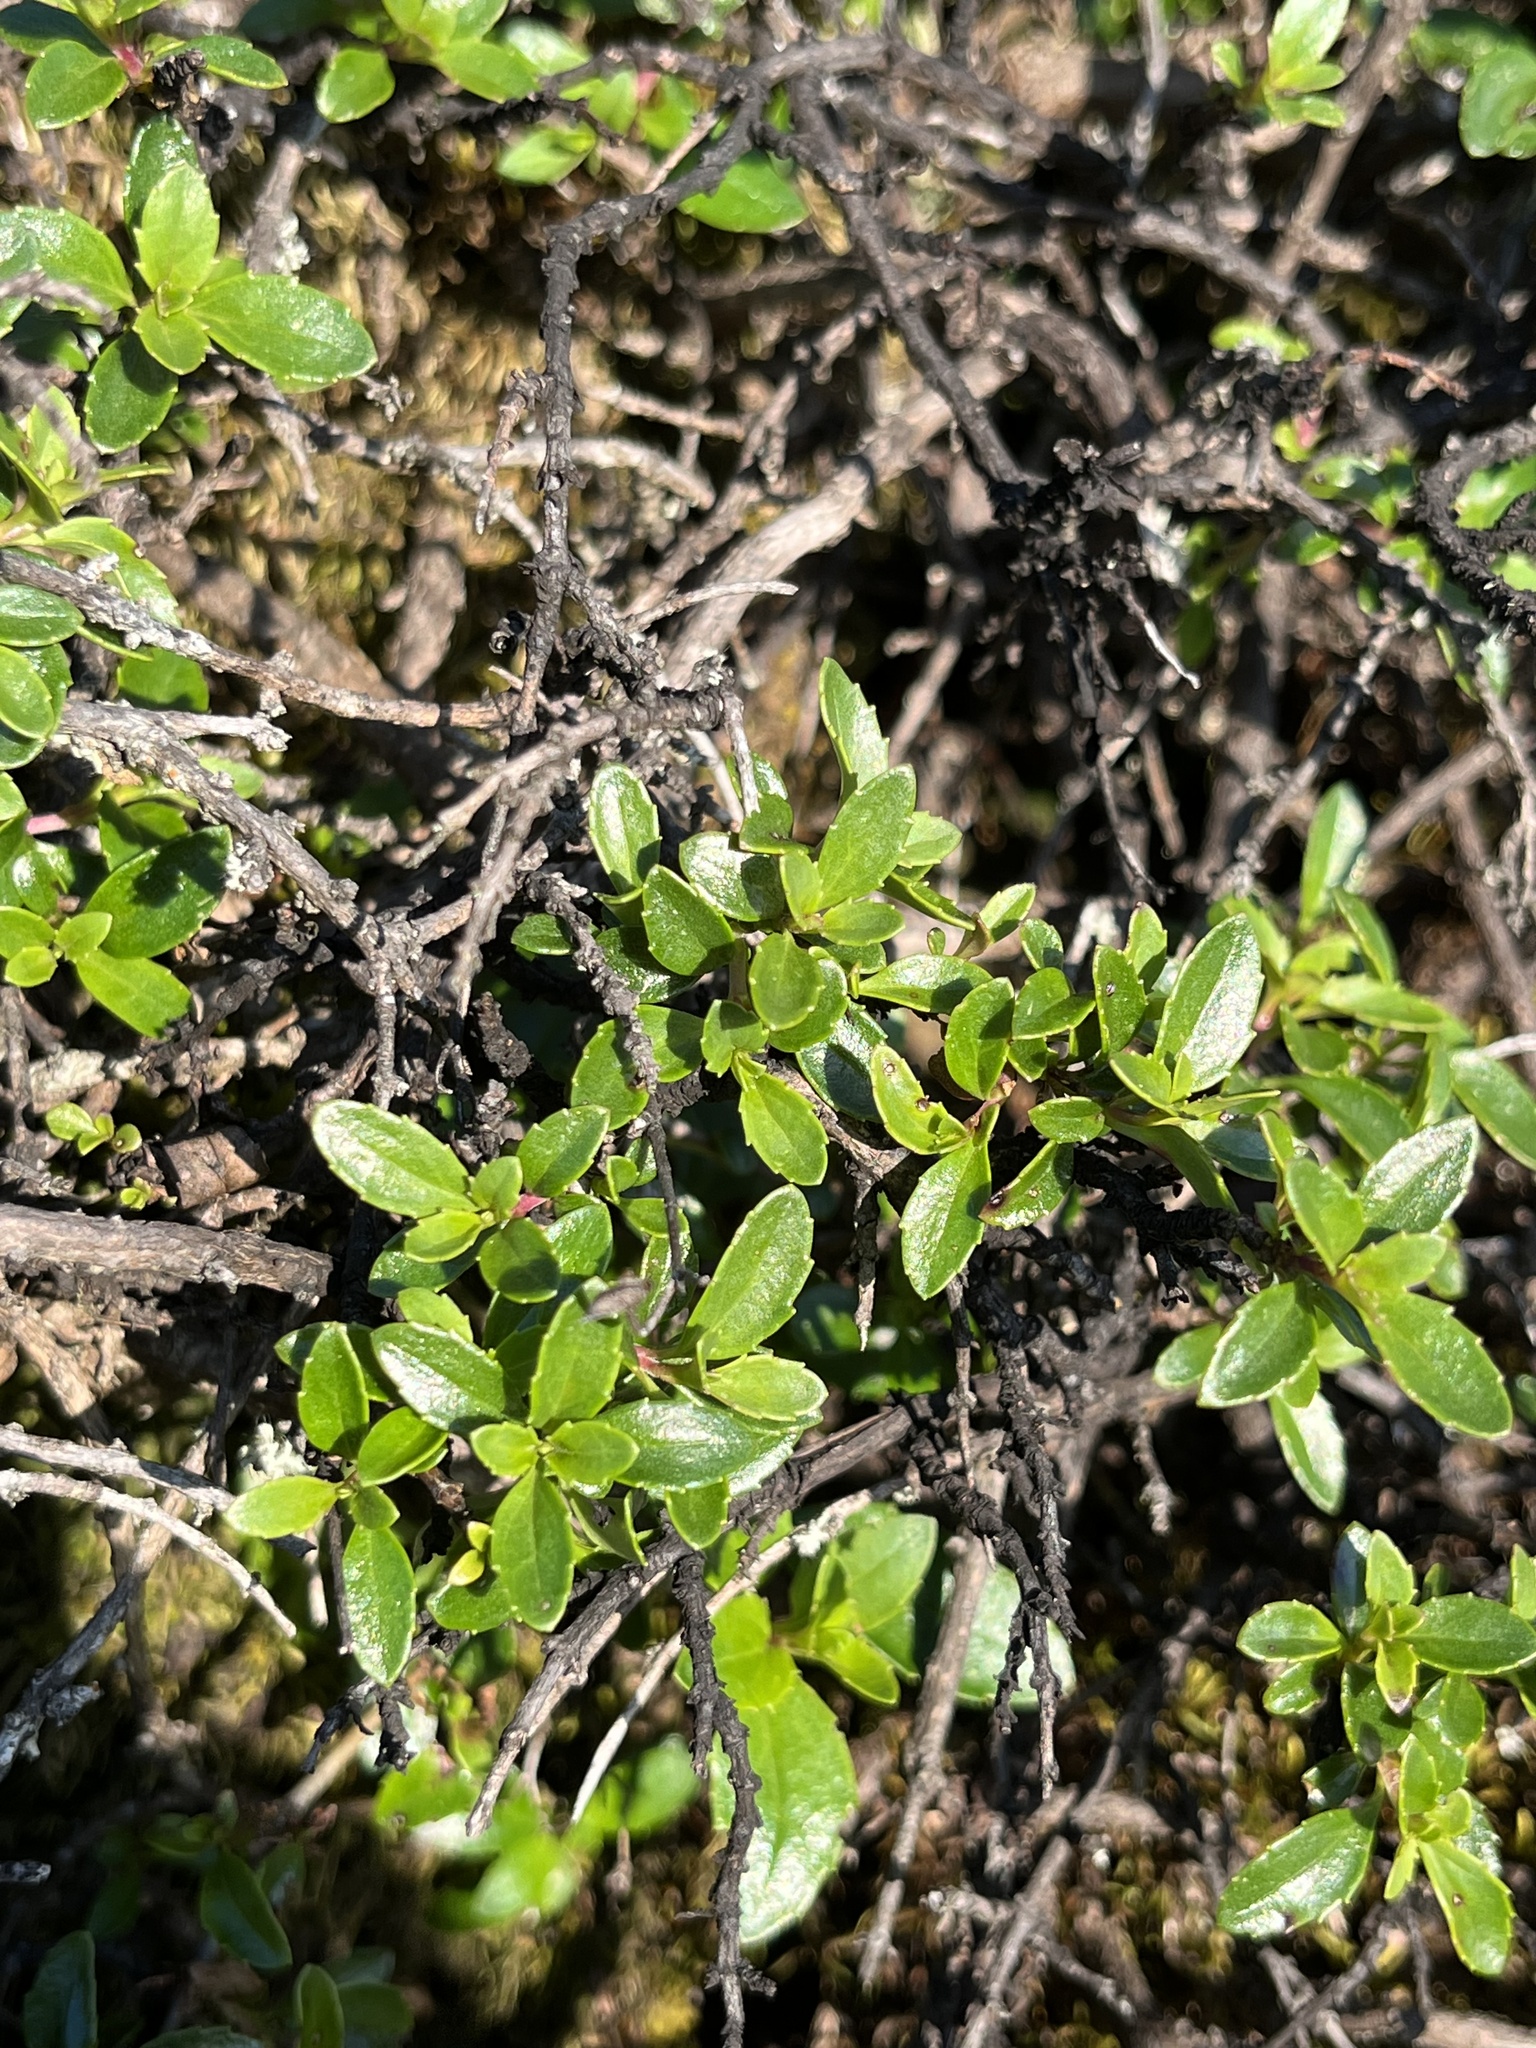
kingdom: Plantae
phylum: Tracheophyta
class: Magnoliopsida
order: Lamiales
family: Plantaginaceae
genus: Keckiella
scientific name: Keckiella corymbosa
